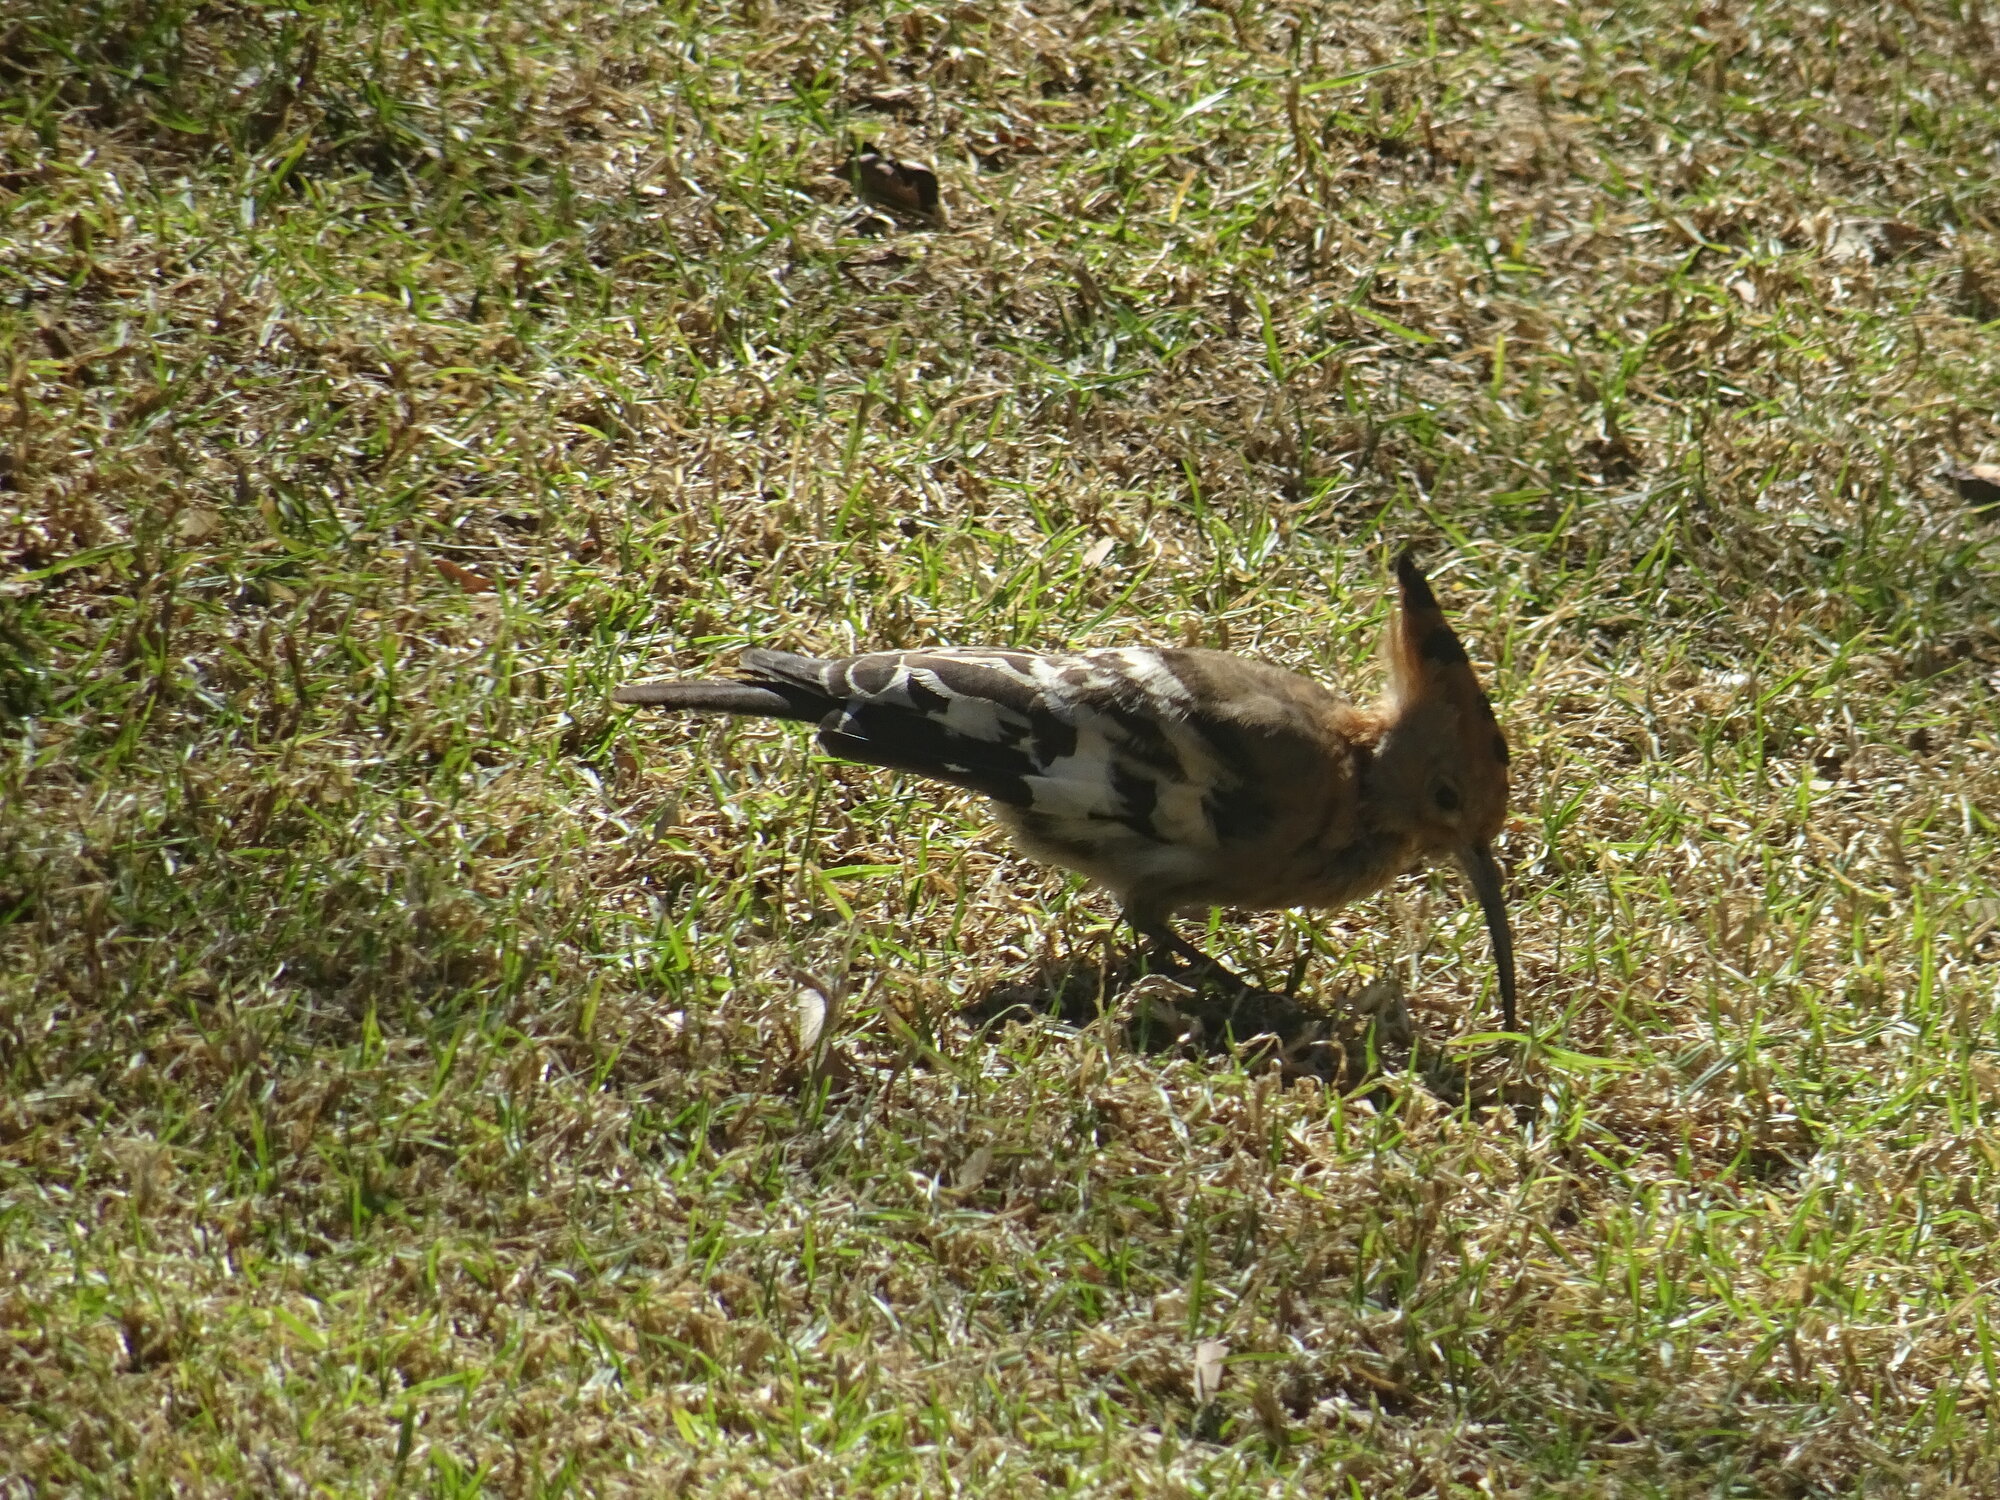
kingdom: Animalia
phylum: Chordata
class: Aves
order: Bucerotiformes
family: Upupidae
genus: Upupa
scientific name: Upupa africana
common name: African hoopoe
